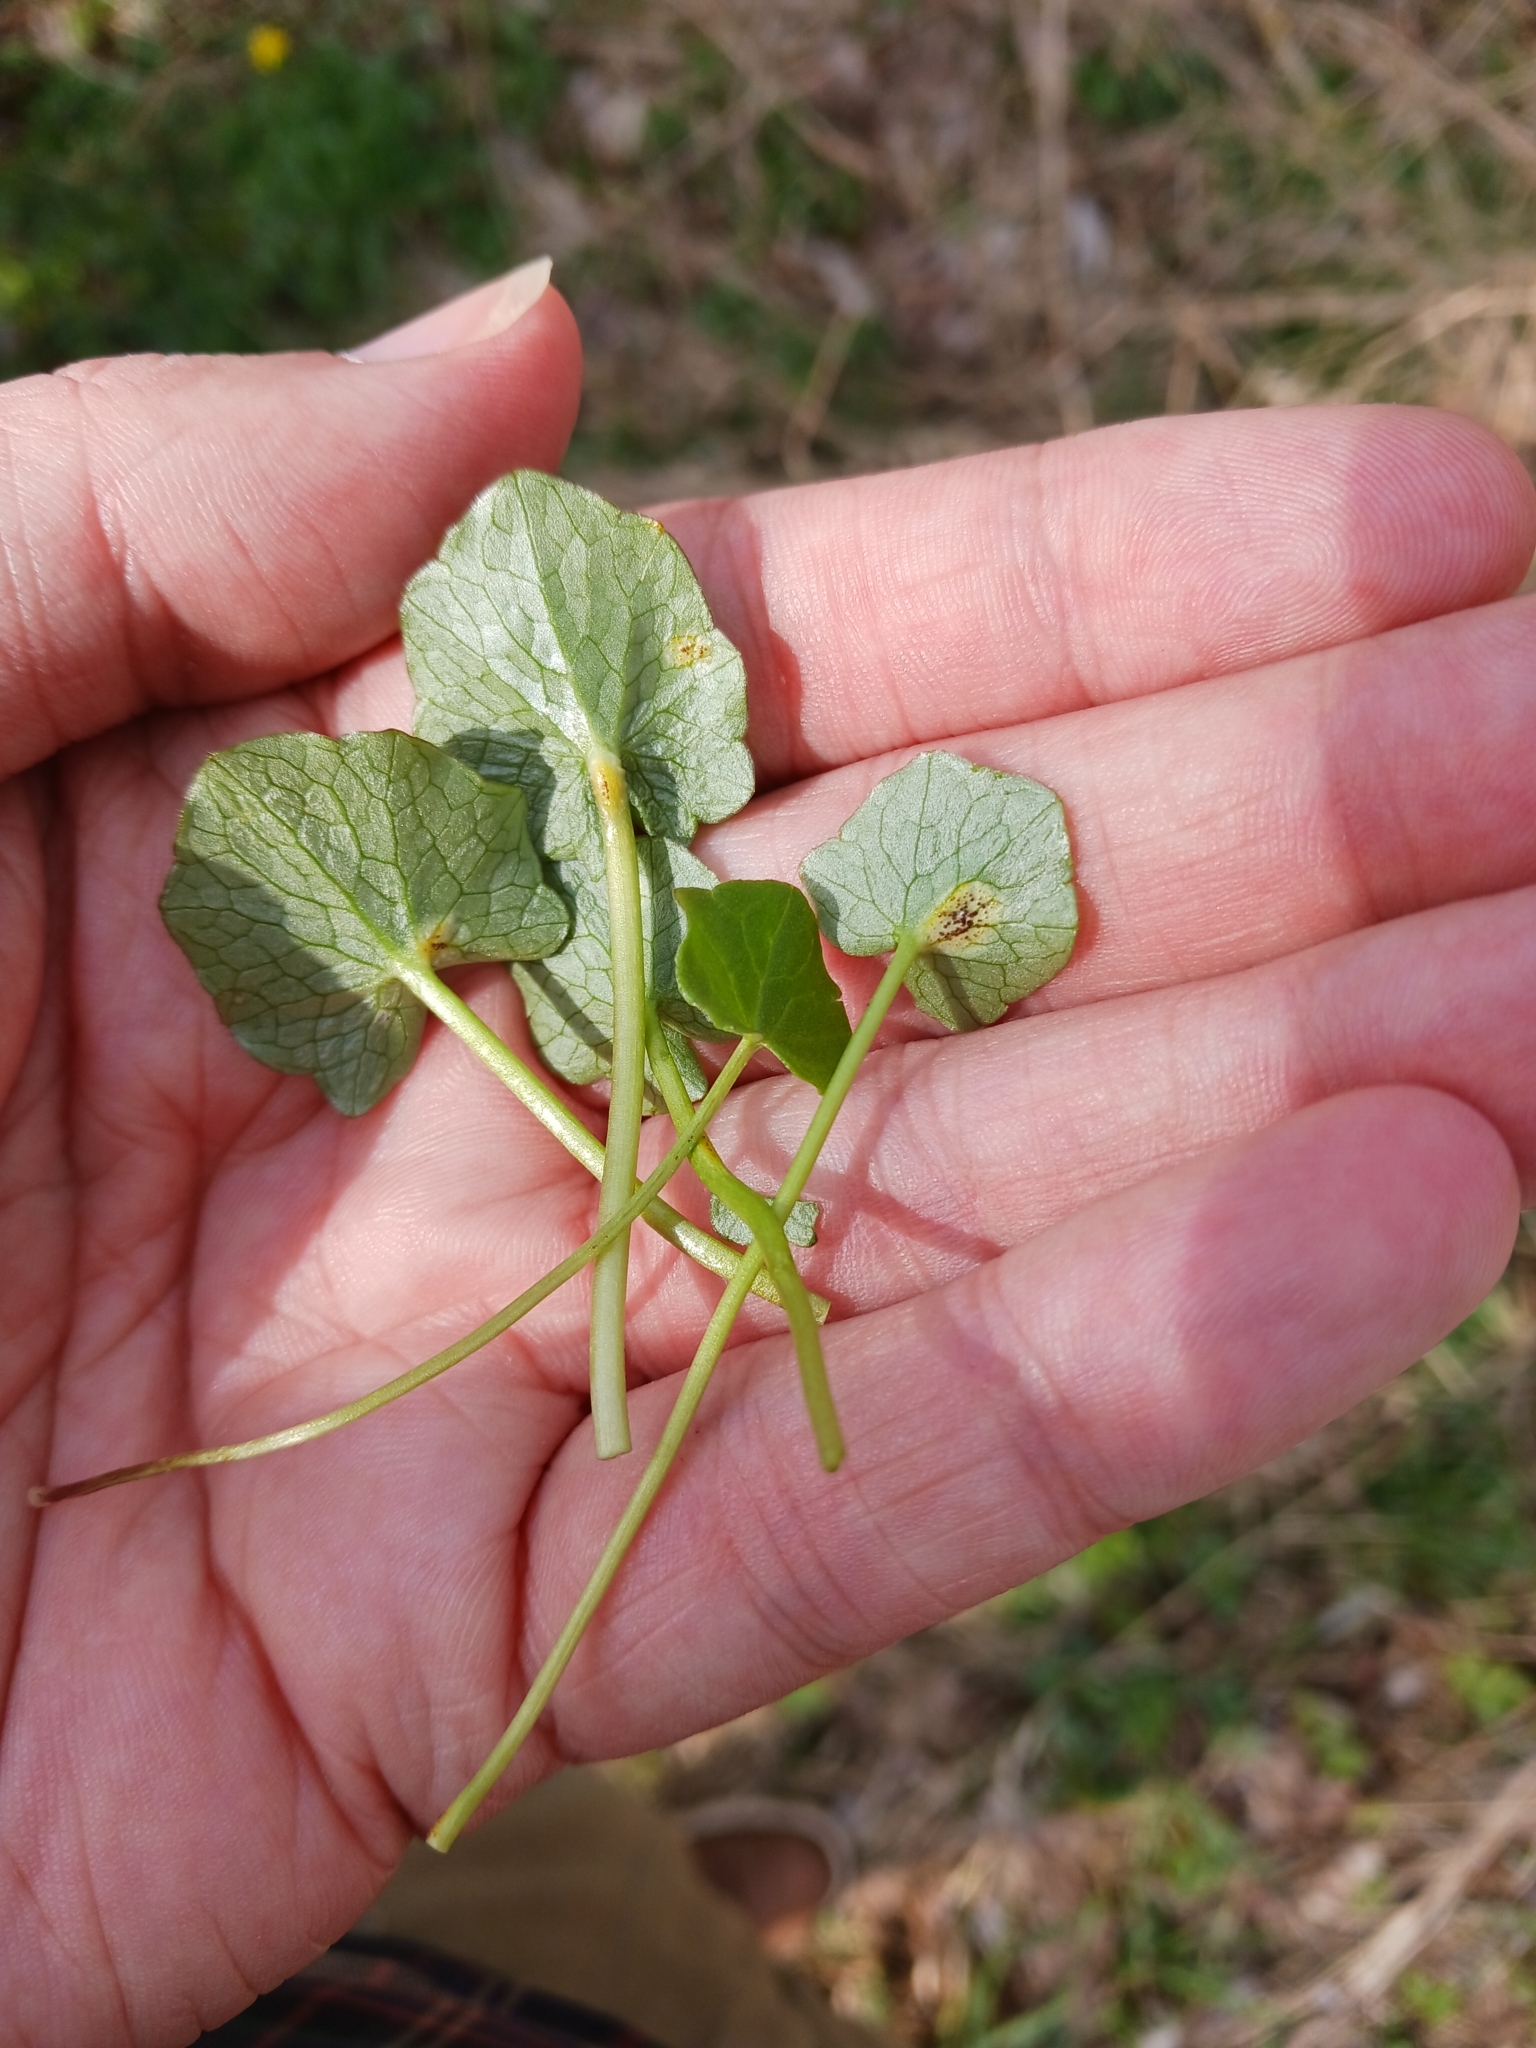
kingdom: Fungi
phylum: Basidiomycota
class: Pucciniomycetes
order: Pucciniales
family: Pucciniaceae
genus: Uromyces
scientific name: Uromyces ficariae
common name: Bitter chocolate rust
